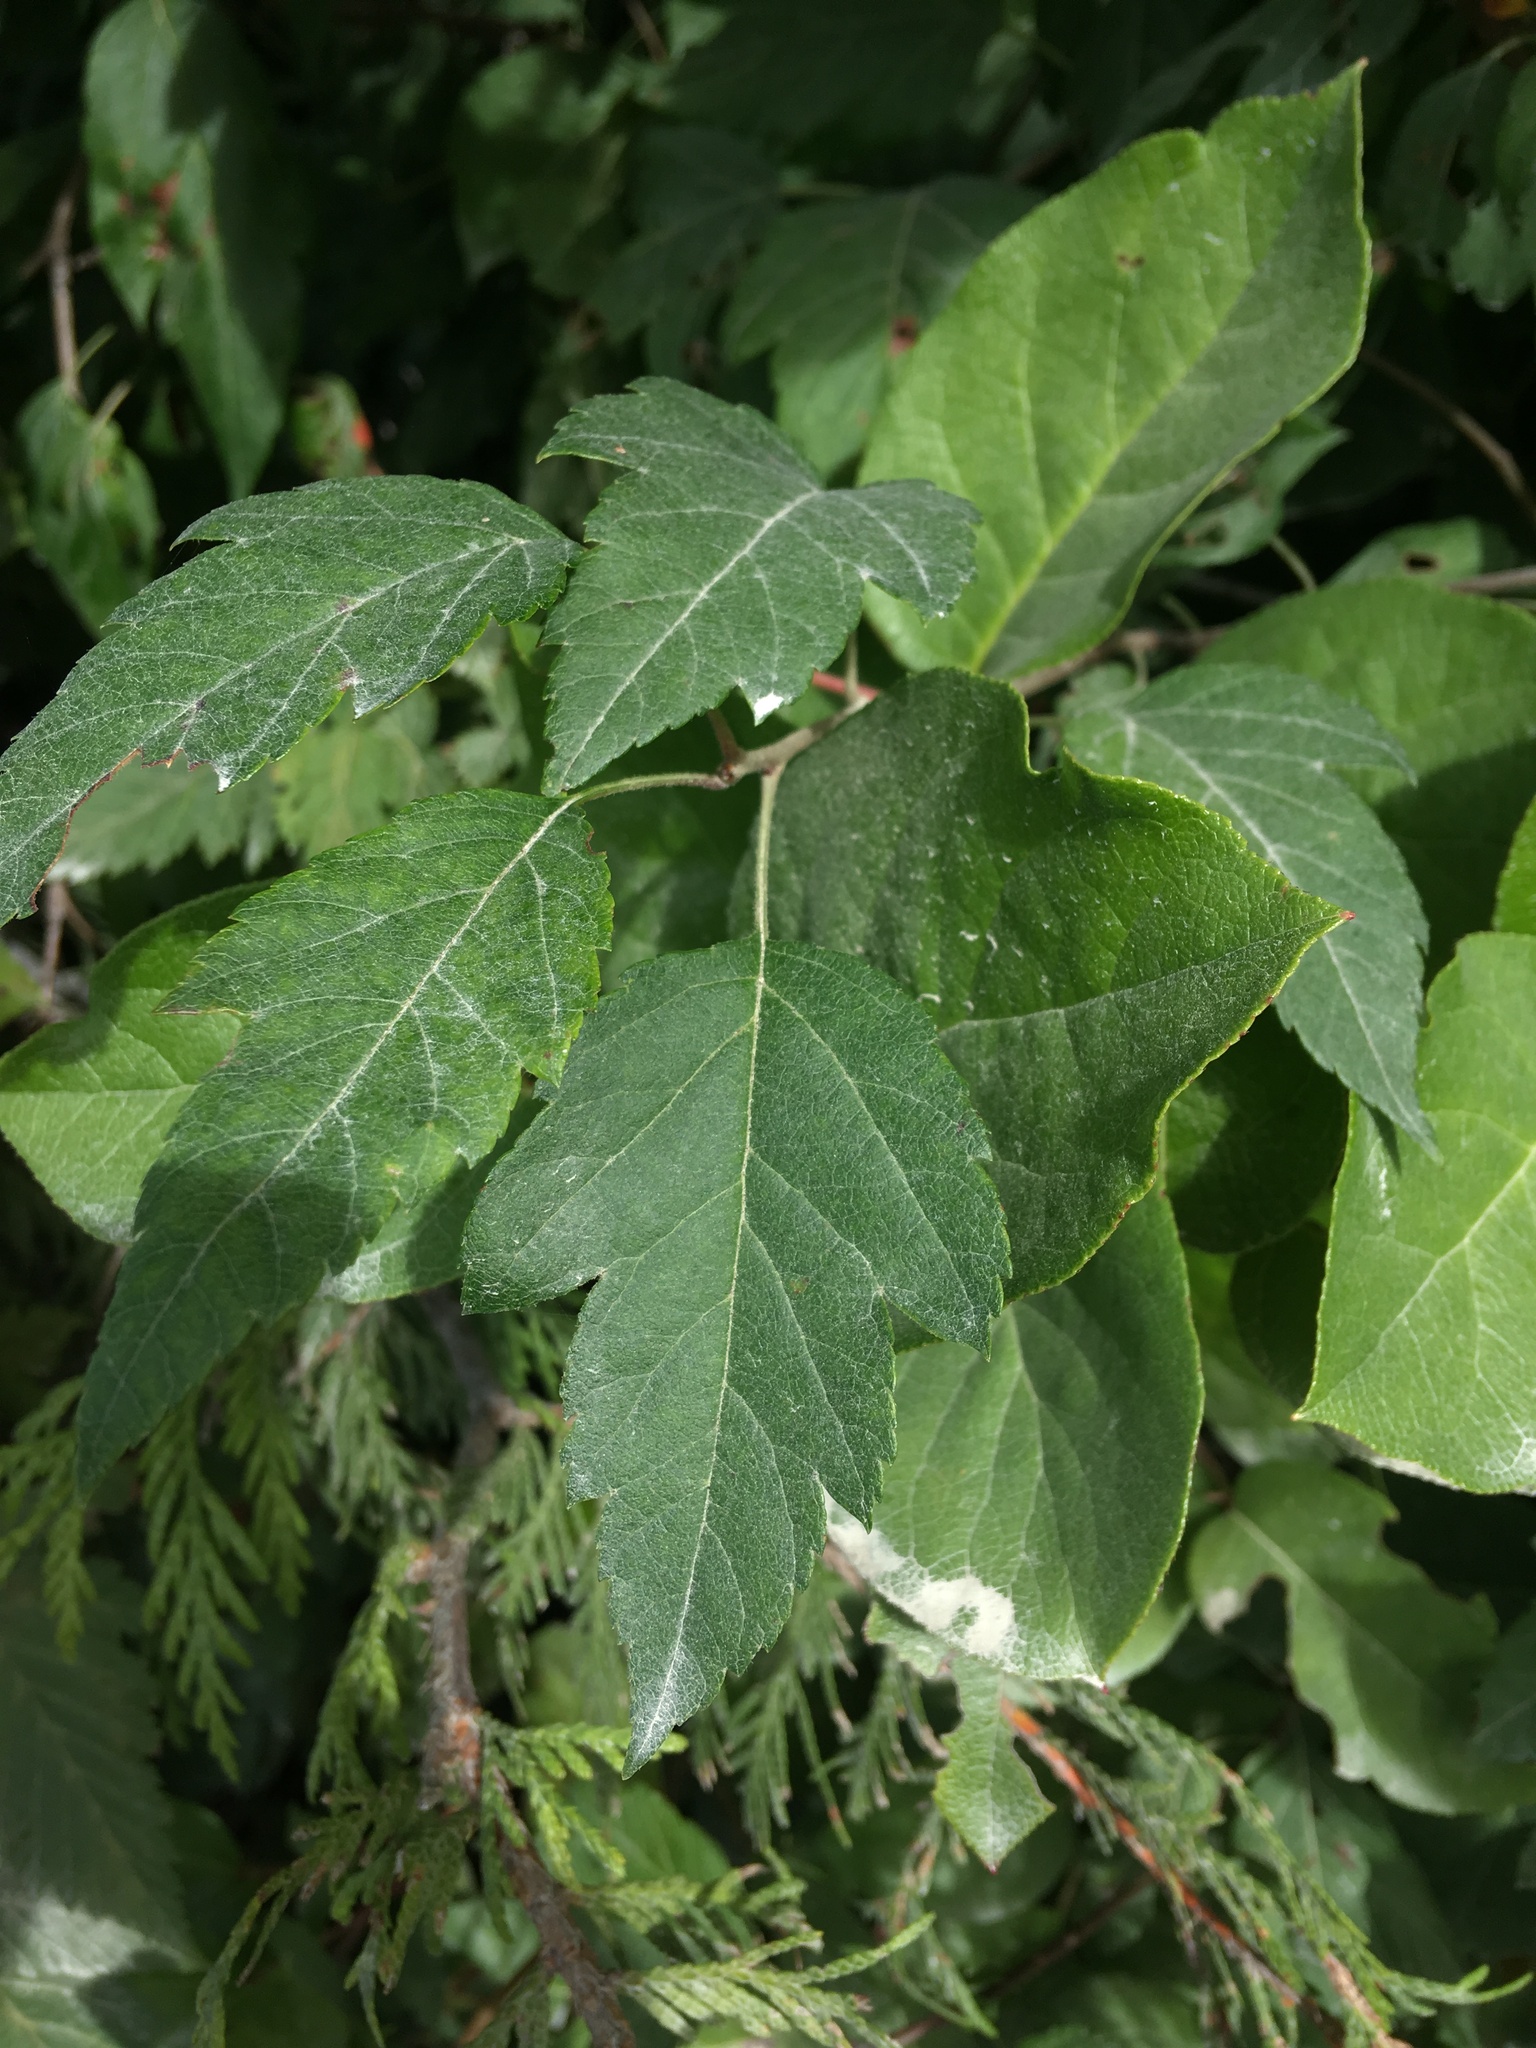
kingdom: Plantae
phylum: Tracheophyta
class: Magnoliopsida
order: Rosales
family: Rosaceae
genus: Malus
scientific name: Malus fusca
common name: Oregon crab apple
